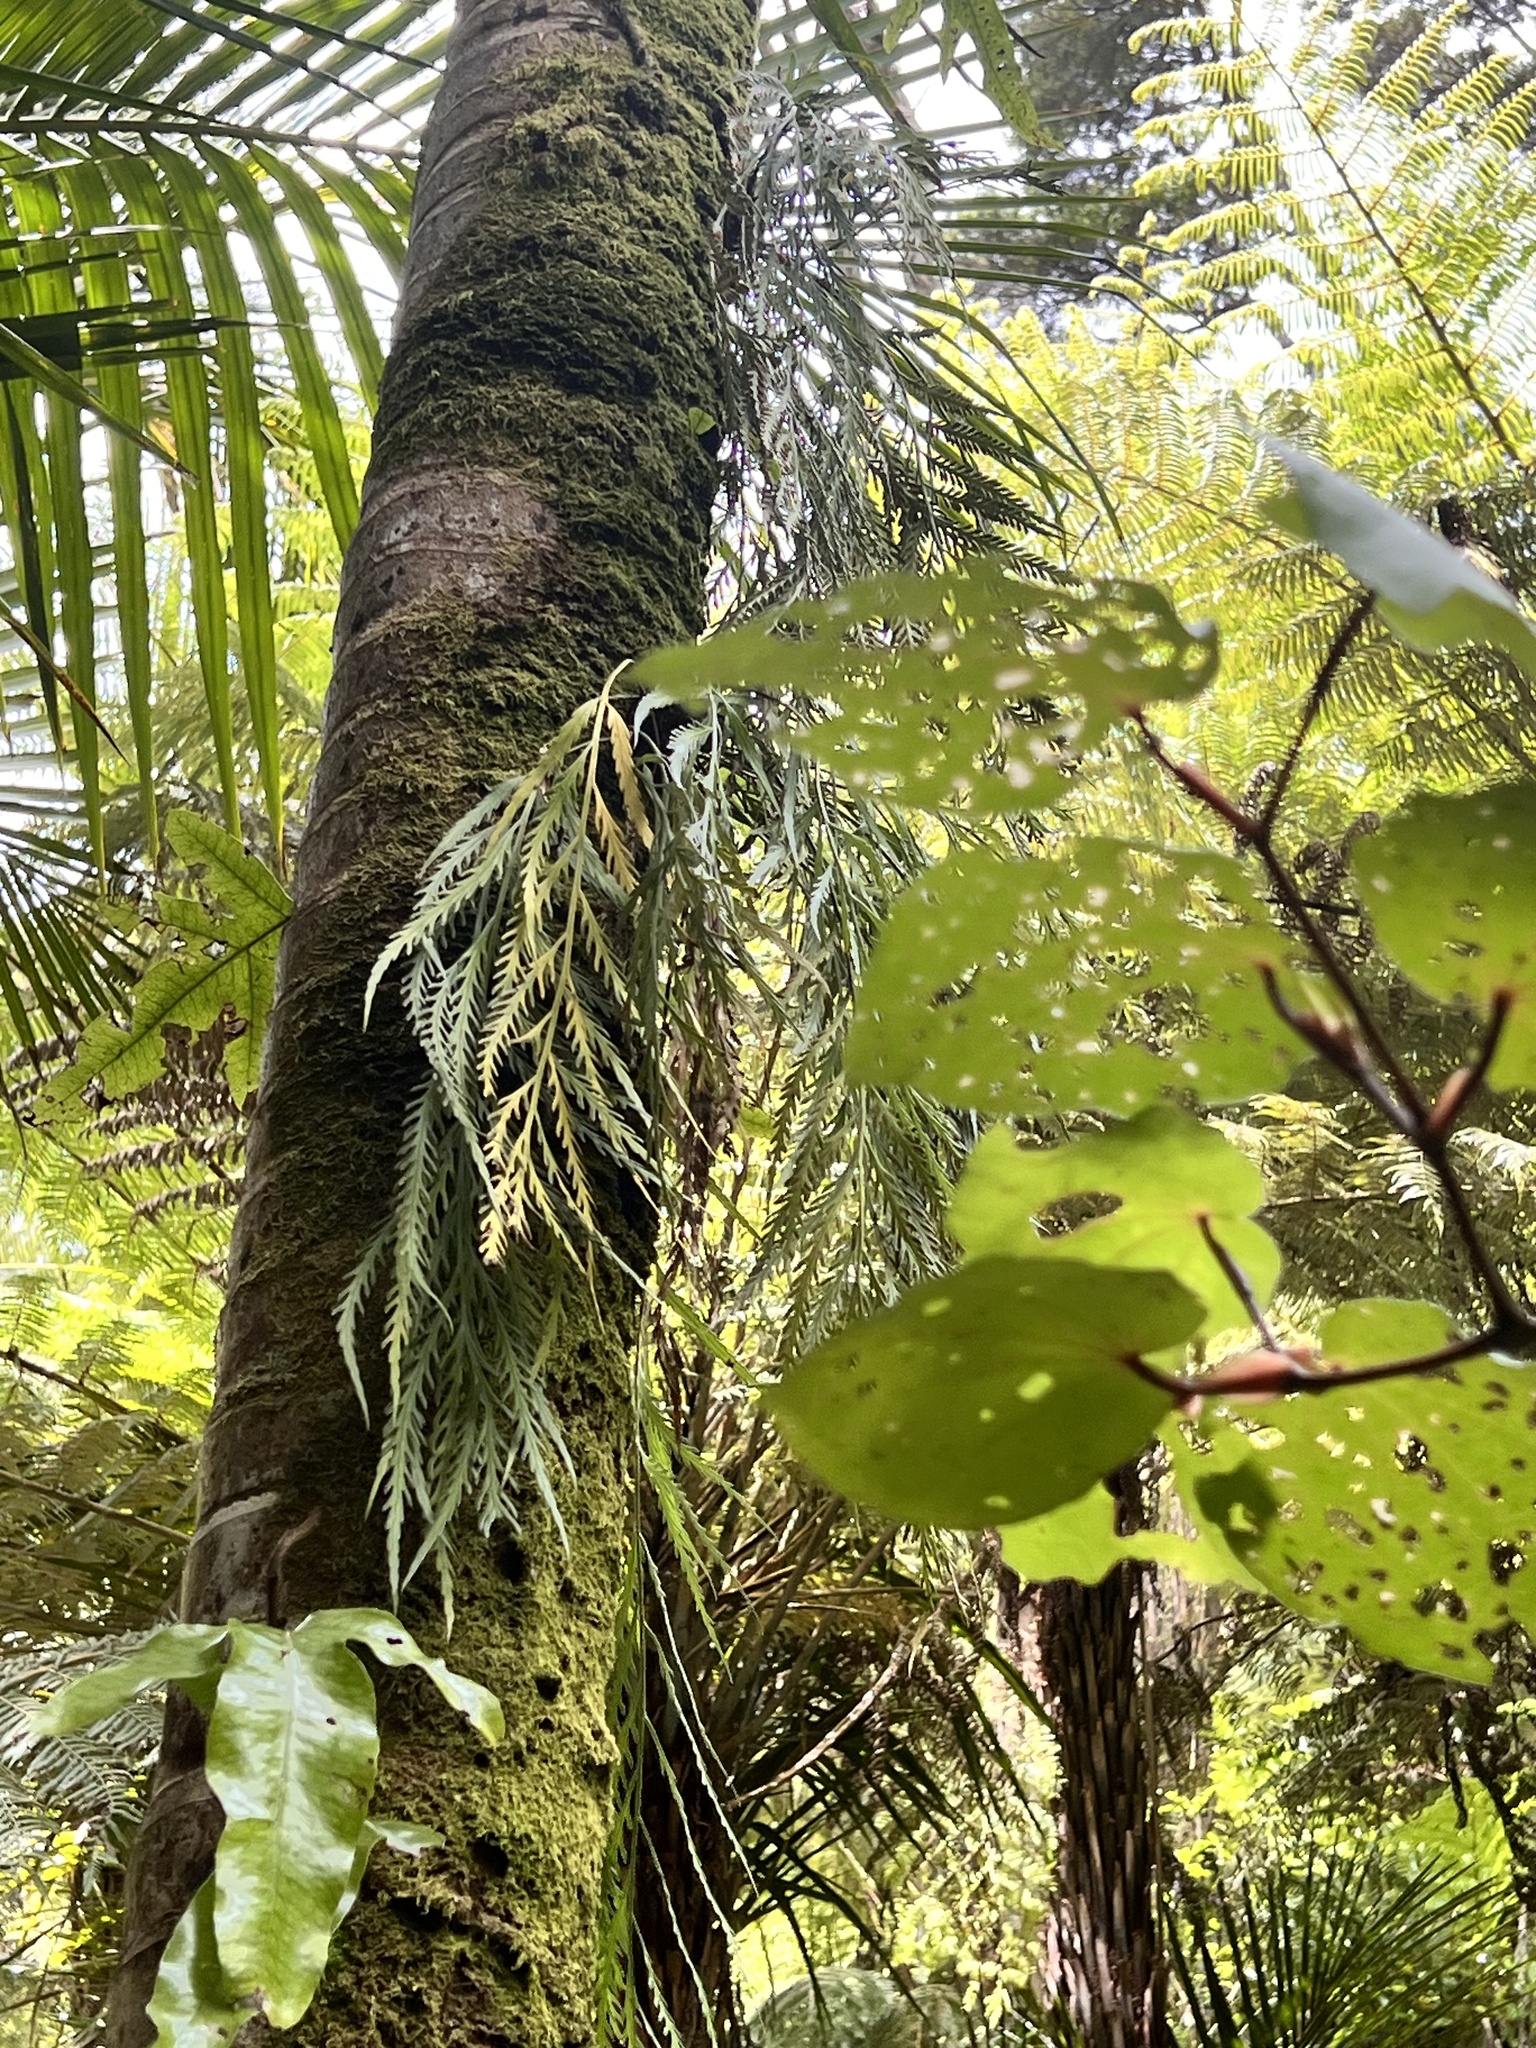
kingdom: Plantae
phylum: Tracheophyta
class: Polypodiopsida
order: Polypodiales
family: Aspleniaceae
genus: Asplenium
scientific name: Asplenium flaccidum
